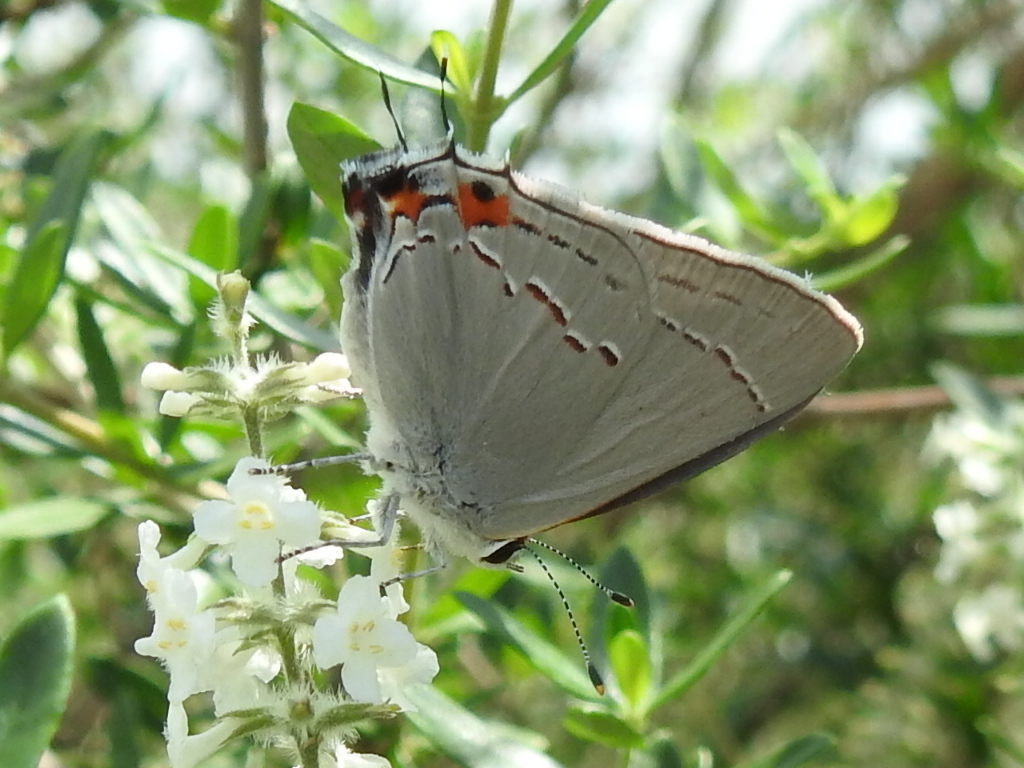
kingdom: Animalia
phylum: Arthropoda
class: Insecta
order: Lepidoptera
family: Lycaenidae
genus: Strymon
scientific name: Strymon melinus
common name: Gray hairstreak
